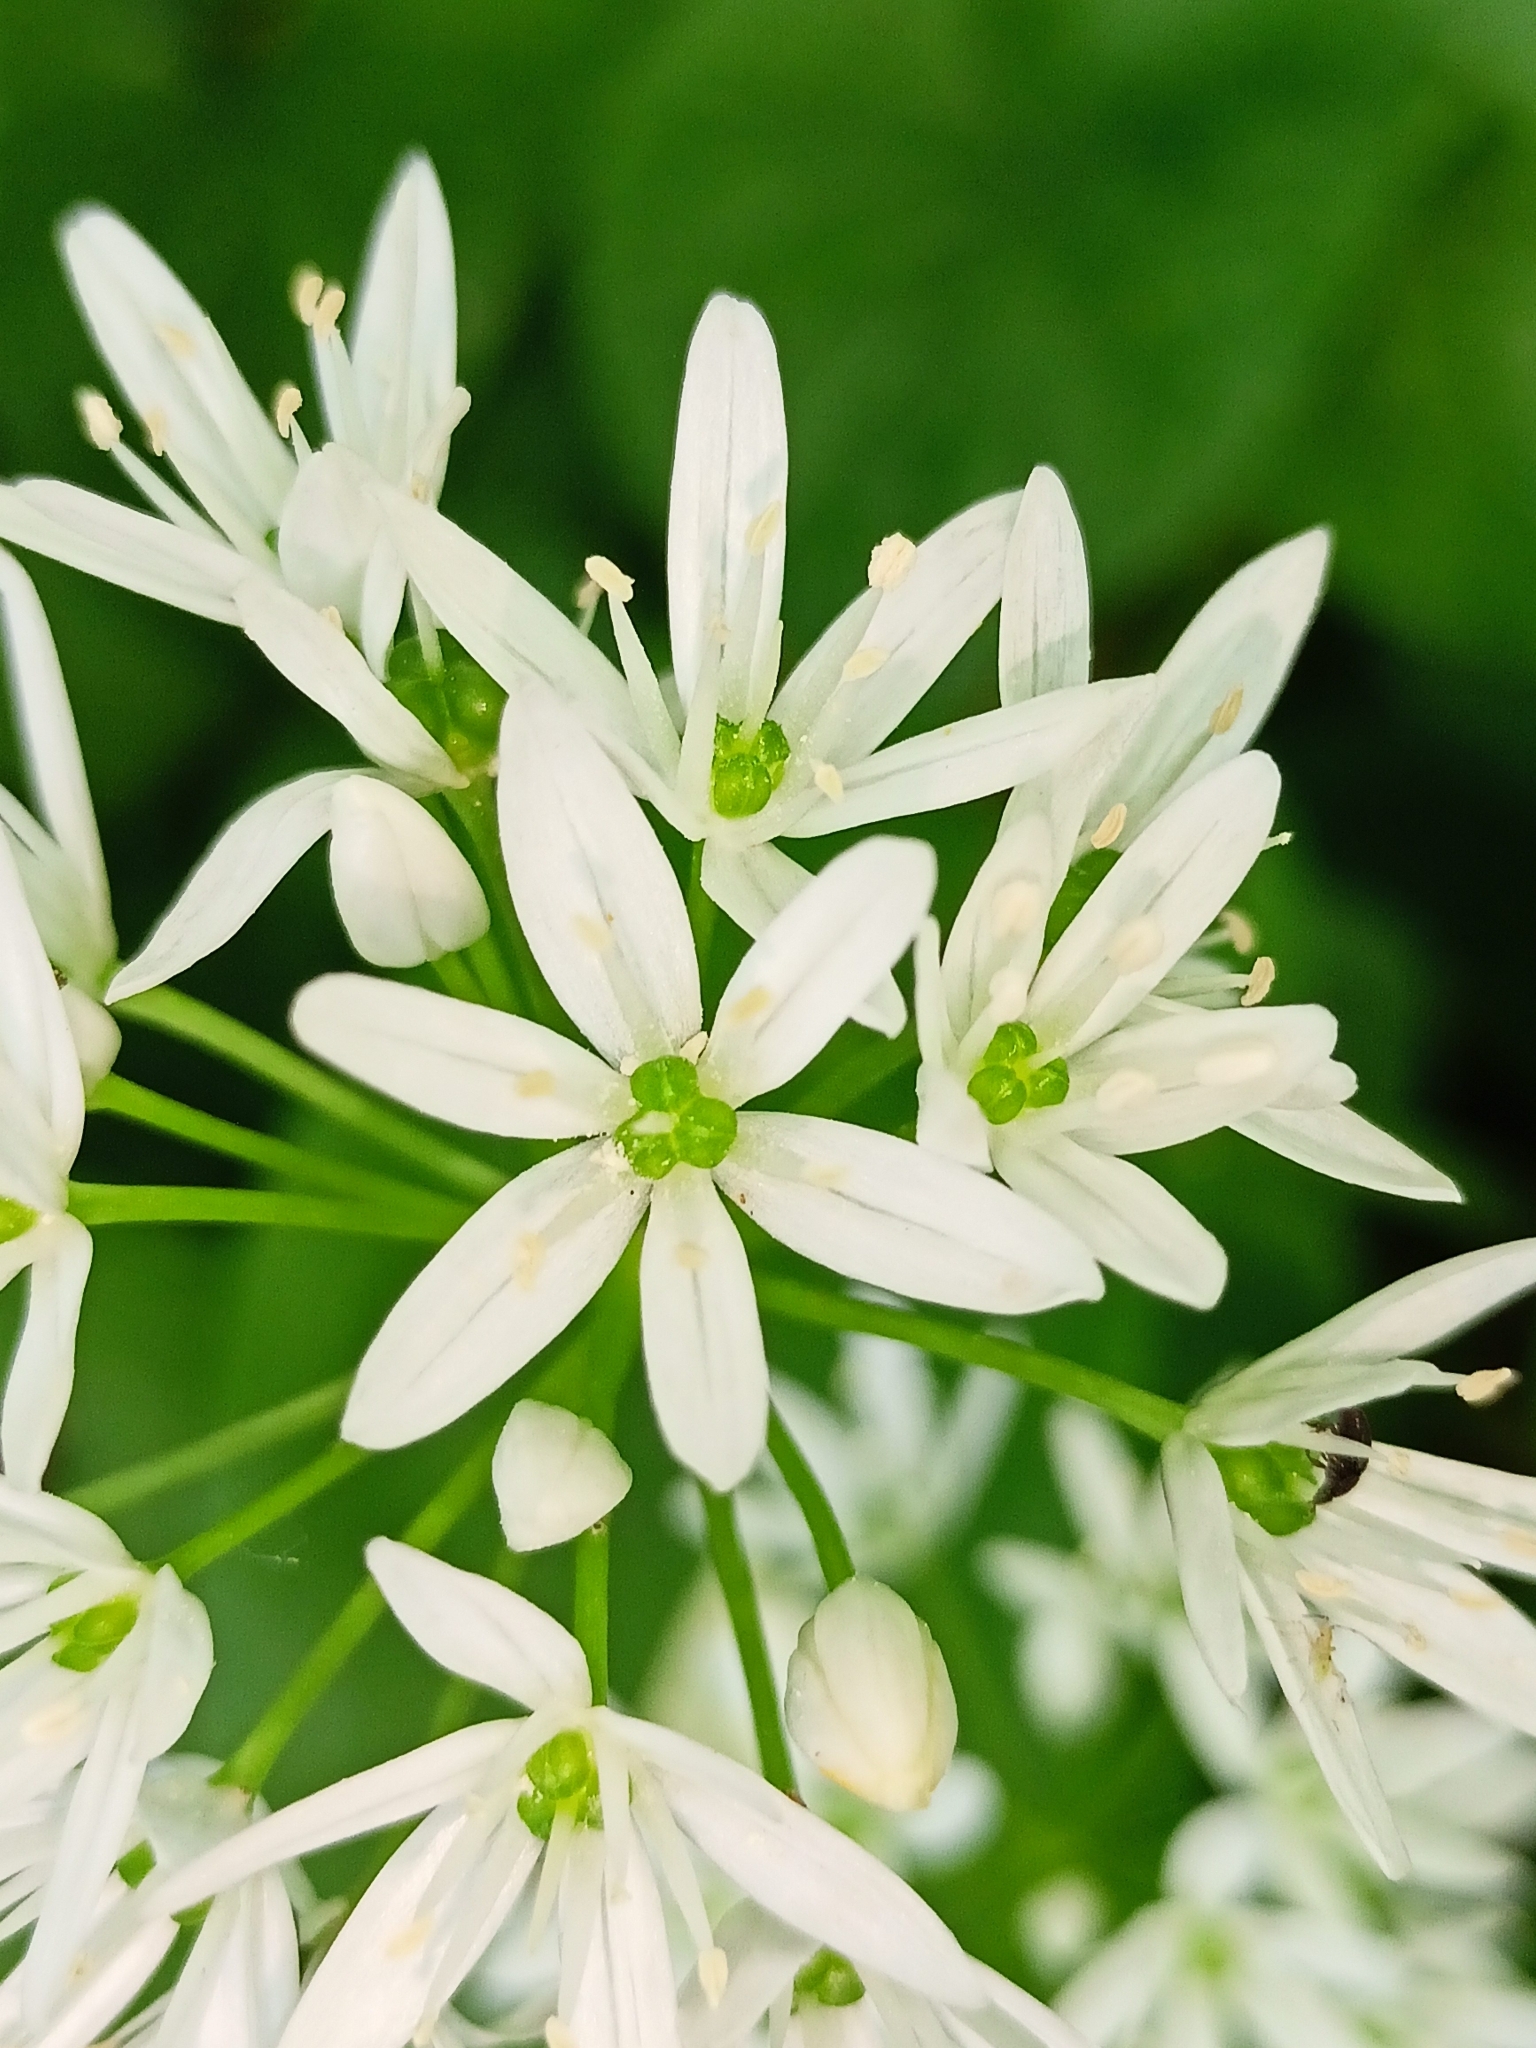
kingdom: Plantae
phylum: Tracheophyta
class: Liliopsida
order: Asparagales
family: Amaryllidaceae
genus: Allium
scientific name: Allium ursinum
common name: Ramsons
